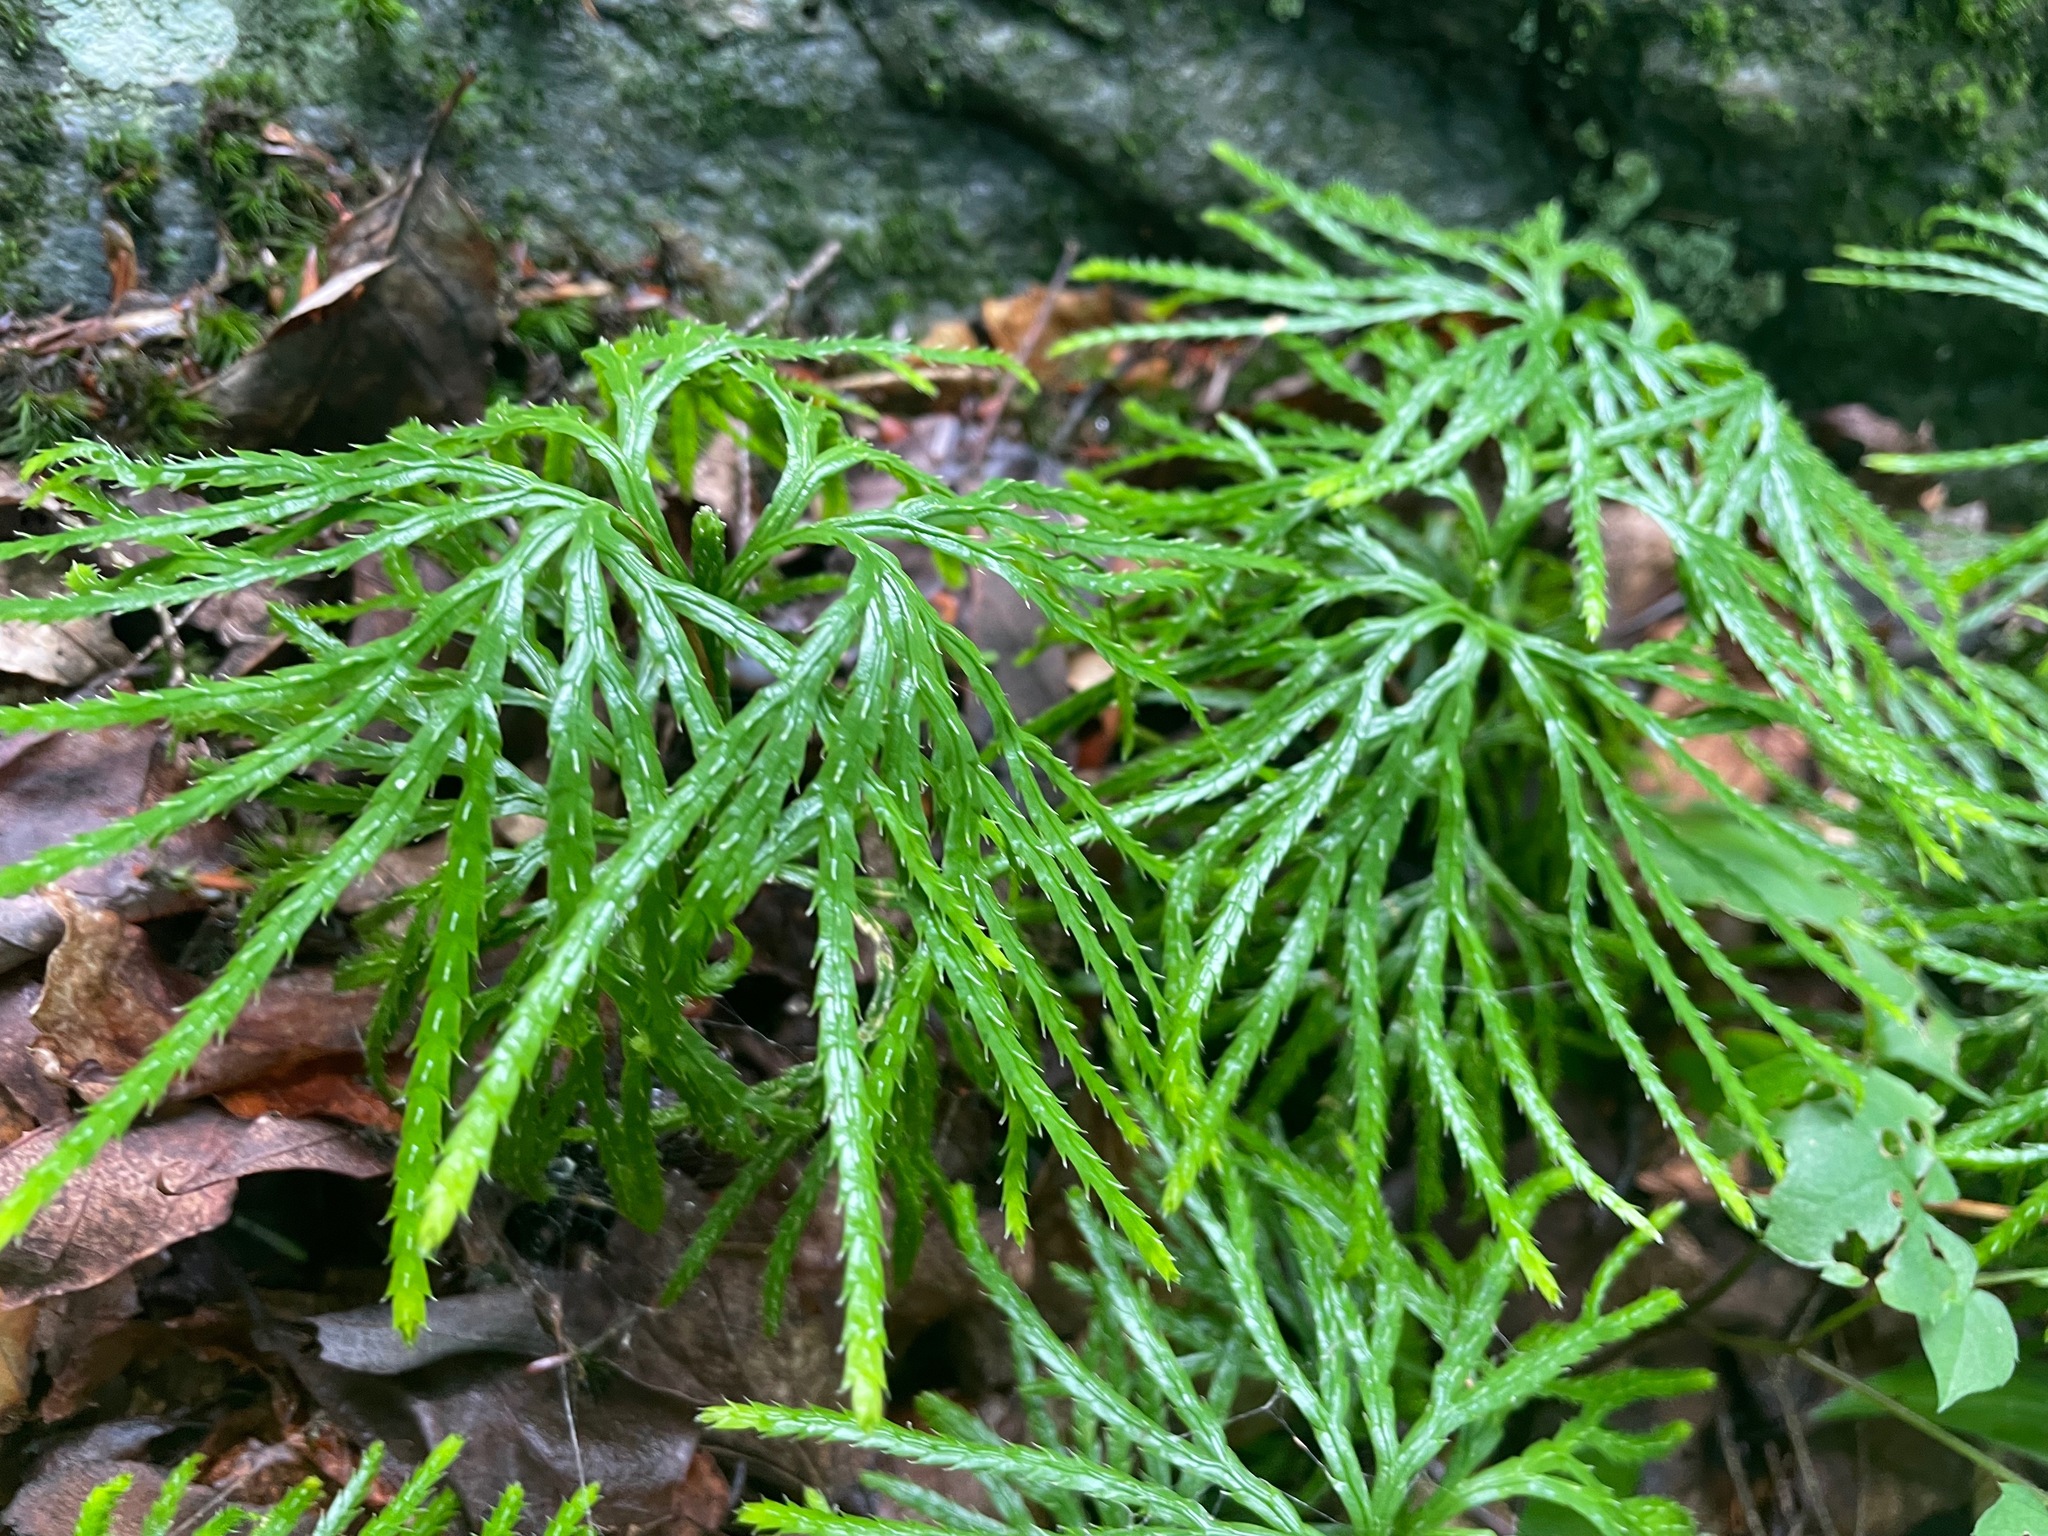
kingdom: Plantae
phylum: Tracheophyta
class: Lycopodiopsida
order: Lycopodiales
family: Lycopodiaceae
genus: Diphasiastrum
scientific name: Diphasiastrum digitatum
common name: Southern running-pine
